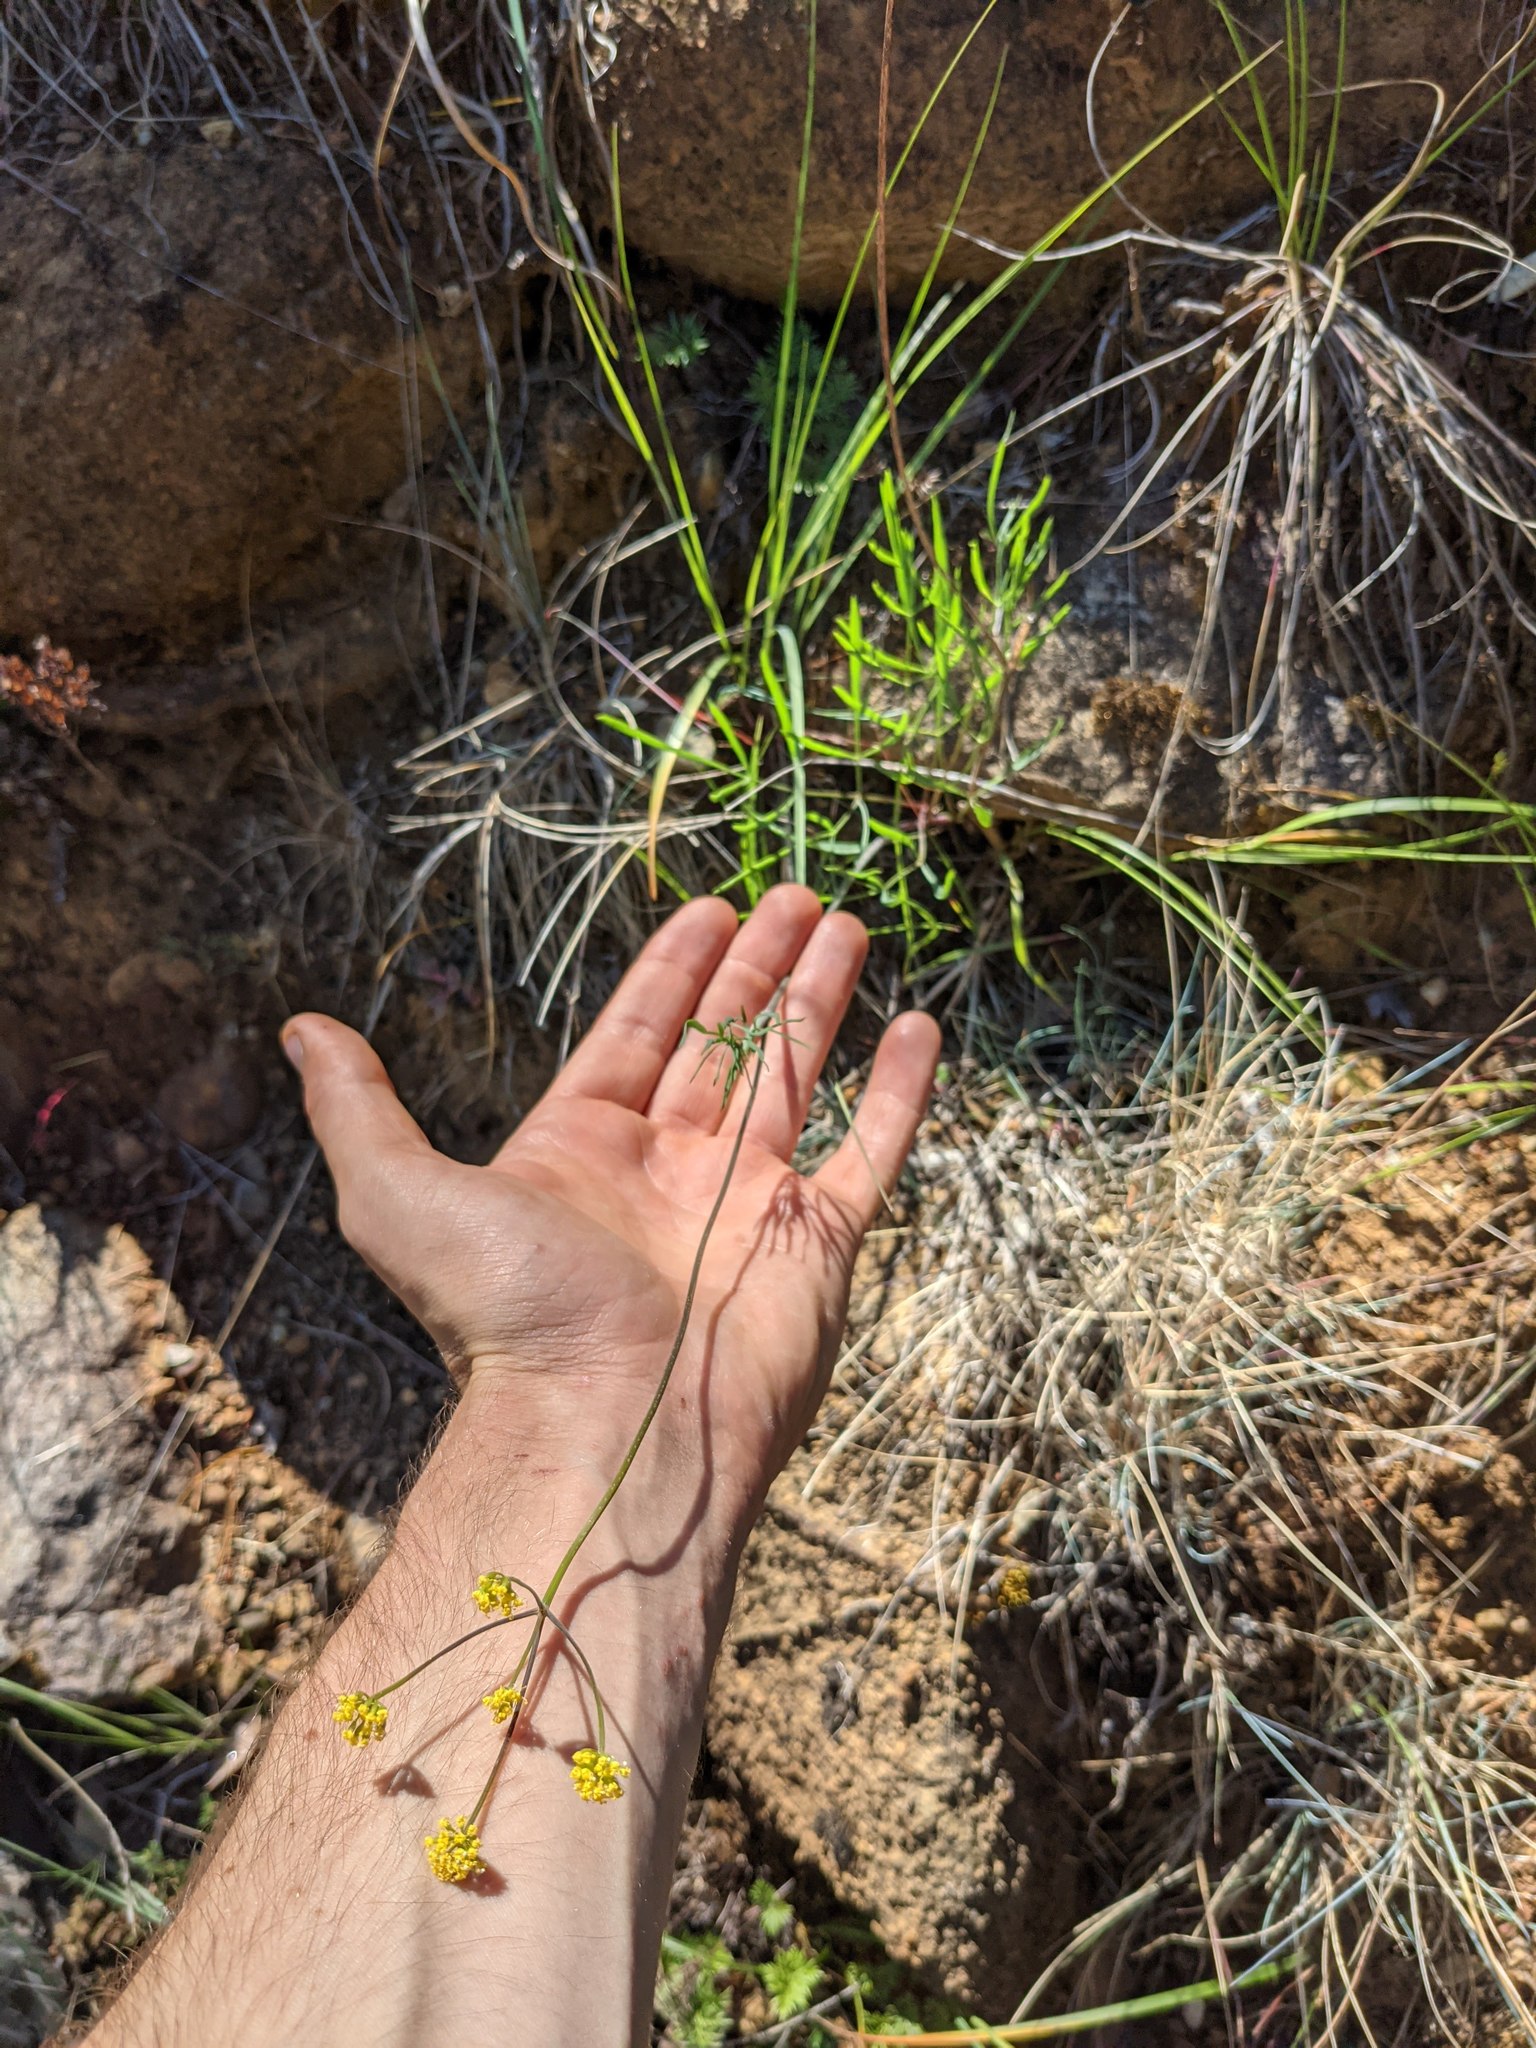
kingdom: Plantae
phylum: Tracheophyta
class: Magnoliopsida
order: Apiales
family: Apiaceae
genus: Lomatium
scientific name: Lomatium triternatum
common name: Ternate lomatium
